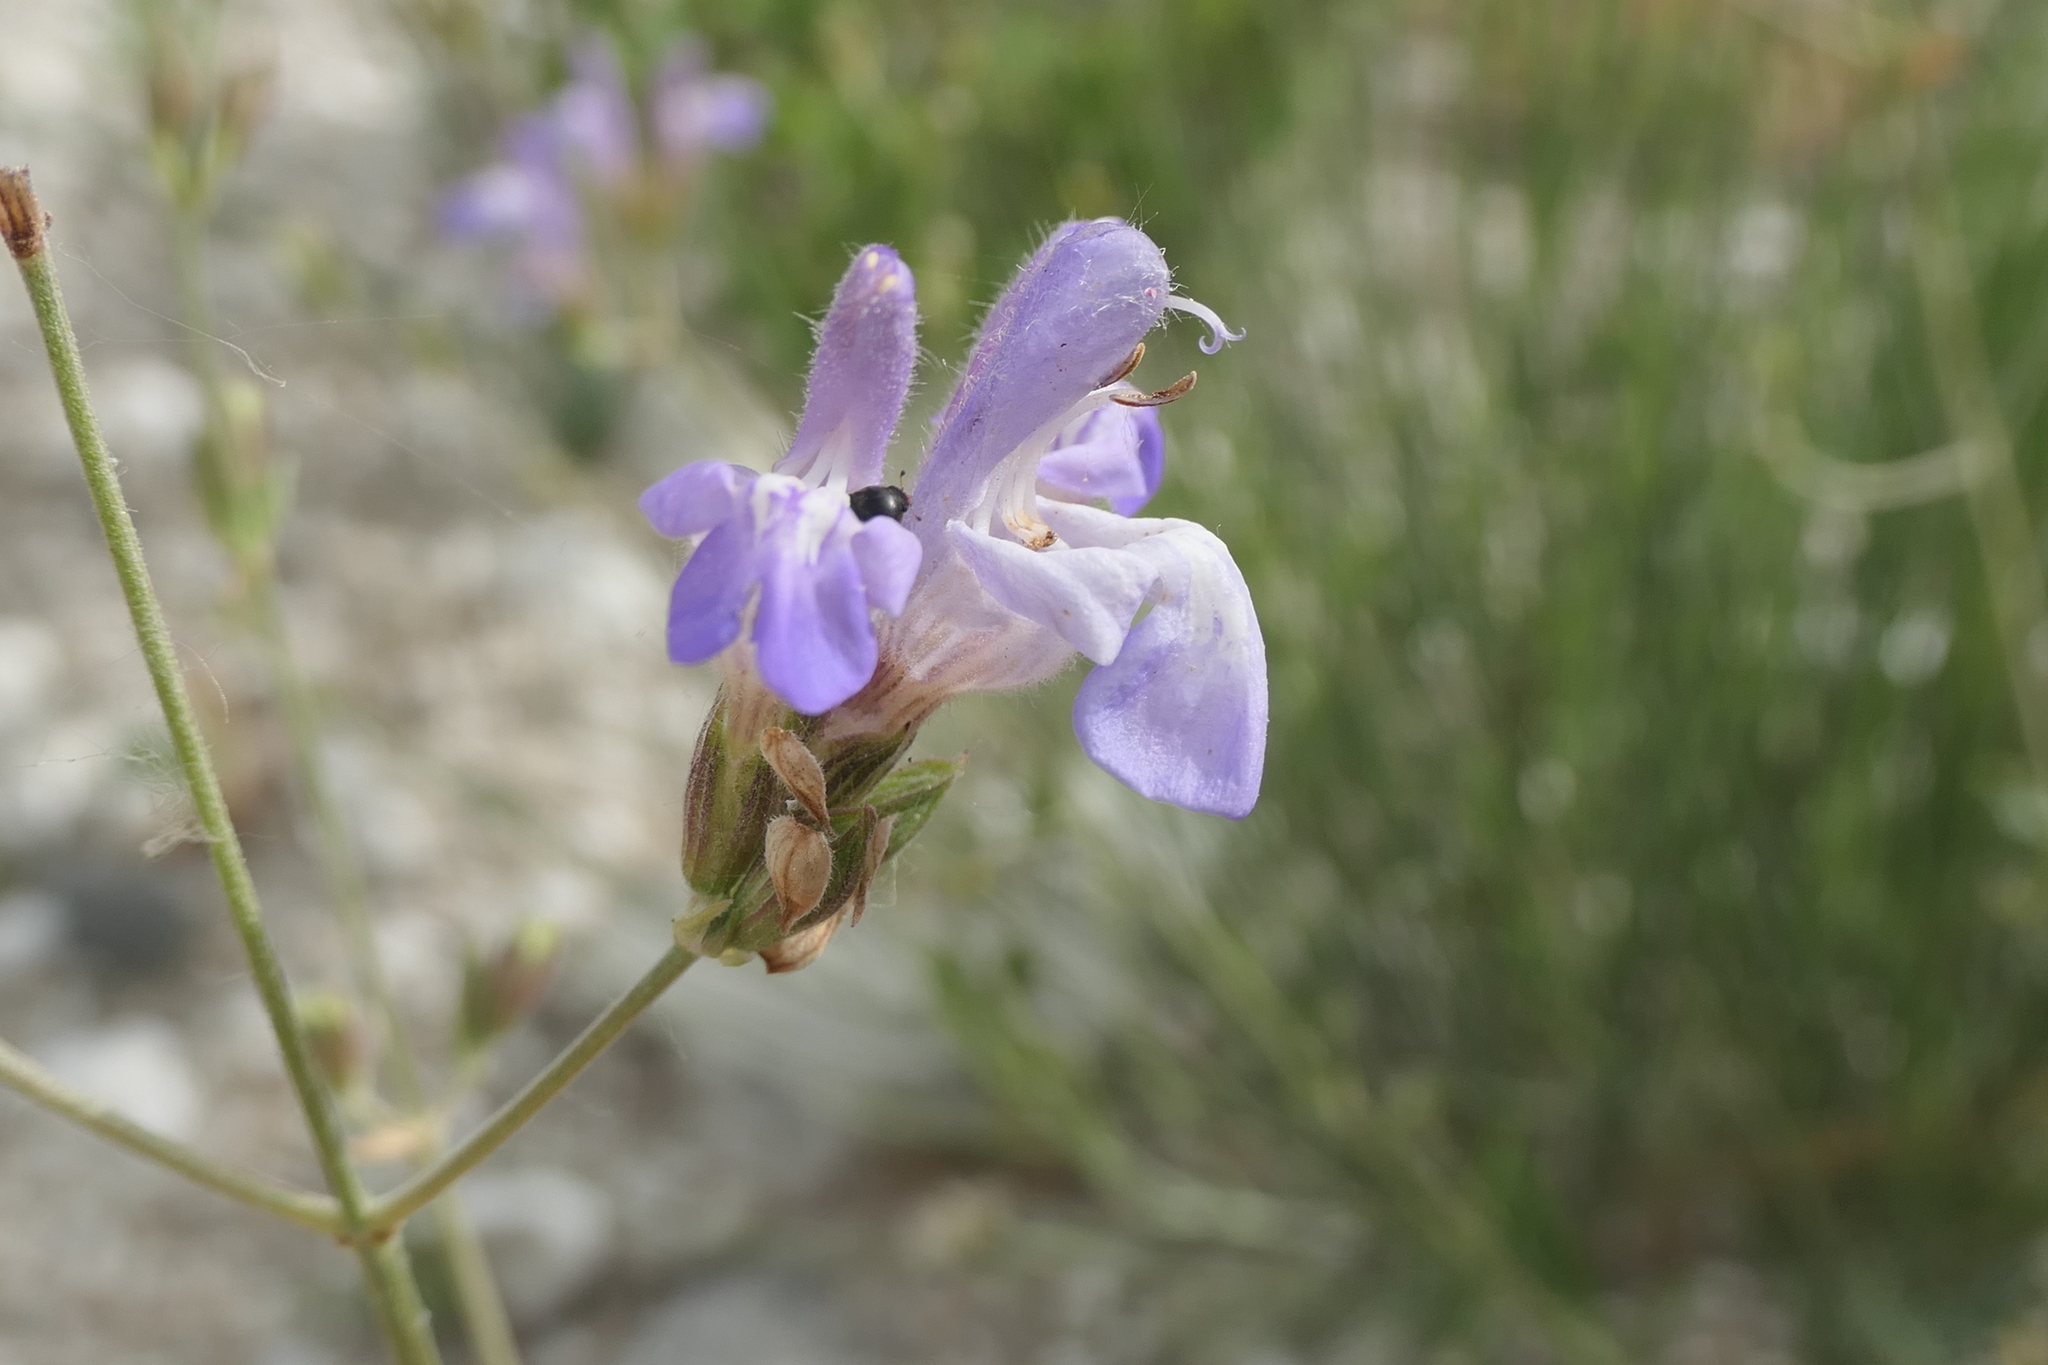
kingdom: Plantae
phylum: Tracheophyta
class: Magnoliopsida
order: Lamiales
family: Lamiaceae
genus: Salvia
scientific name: Salvia officinalis
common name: Sage
